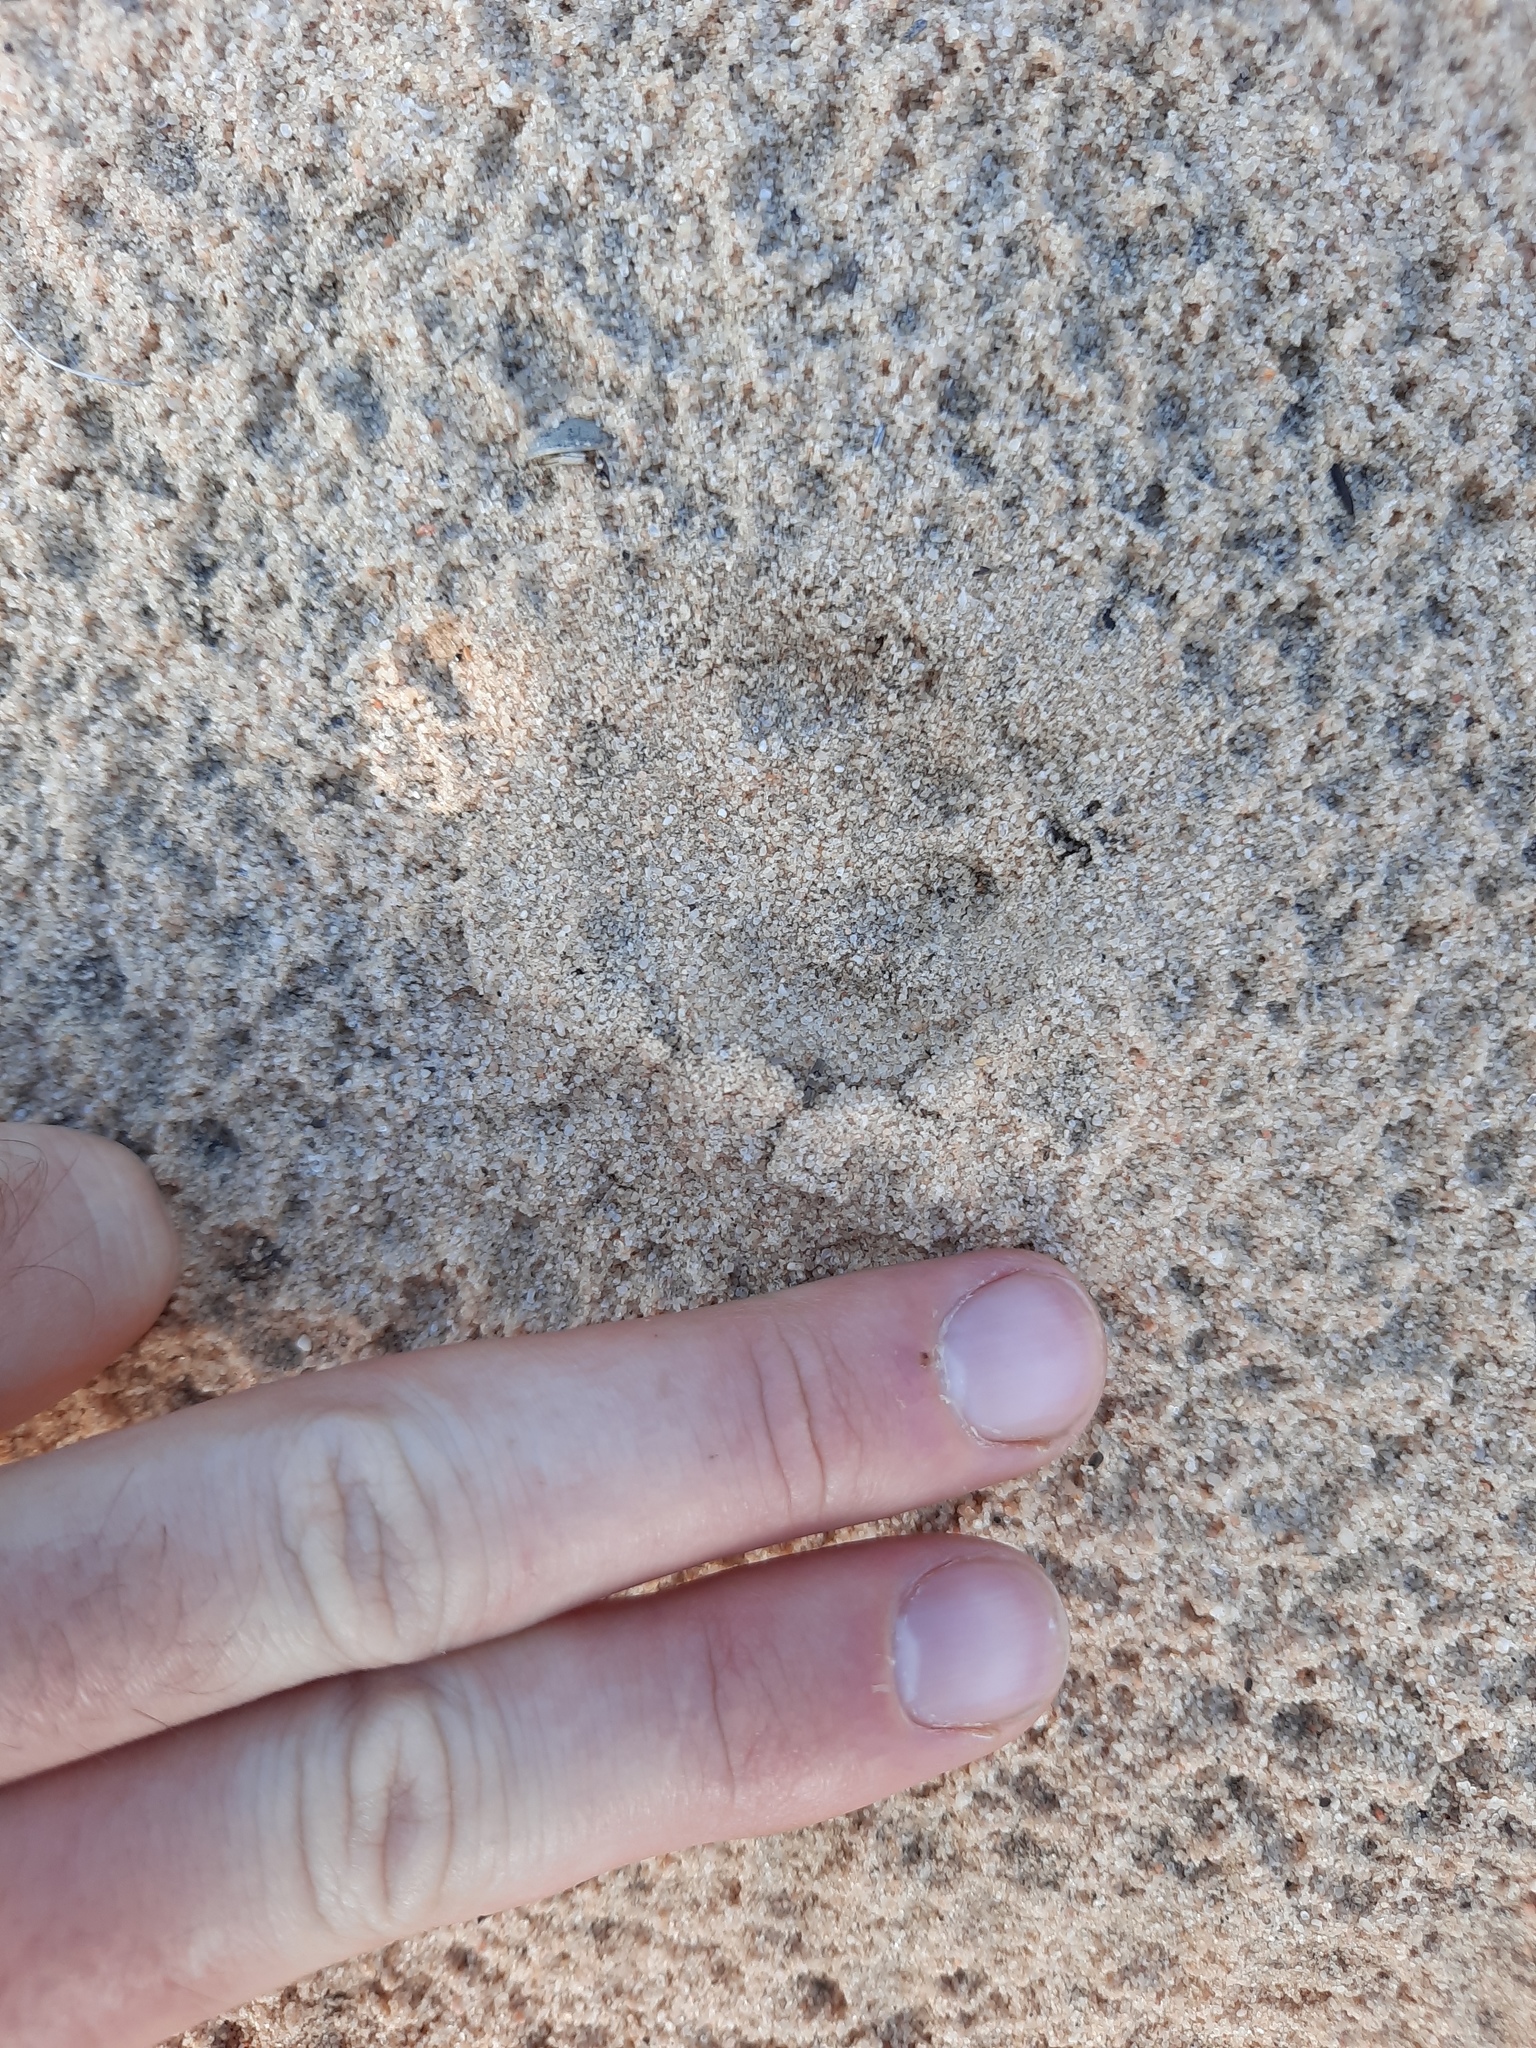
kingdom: Animalia
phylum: Chordata
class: Mammalia
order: Carnivora
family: Felidae
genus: Felis
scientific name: Felis catus
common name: Domestic cat
